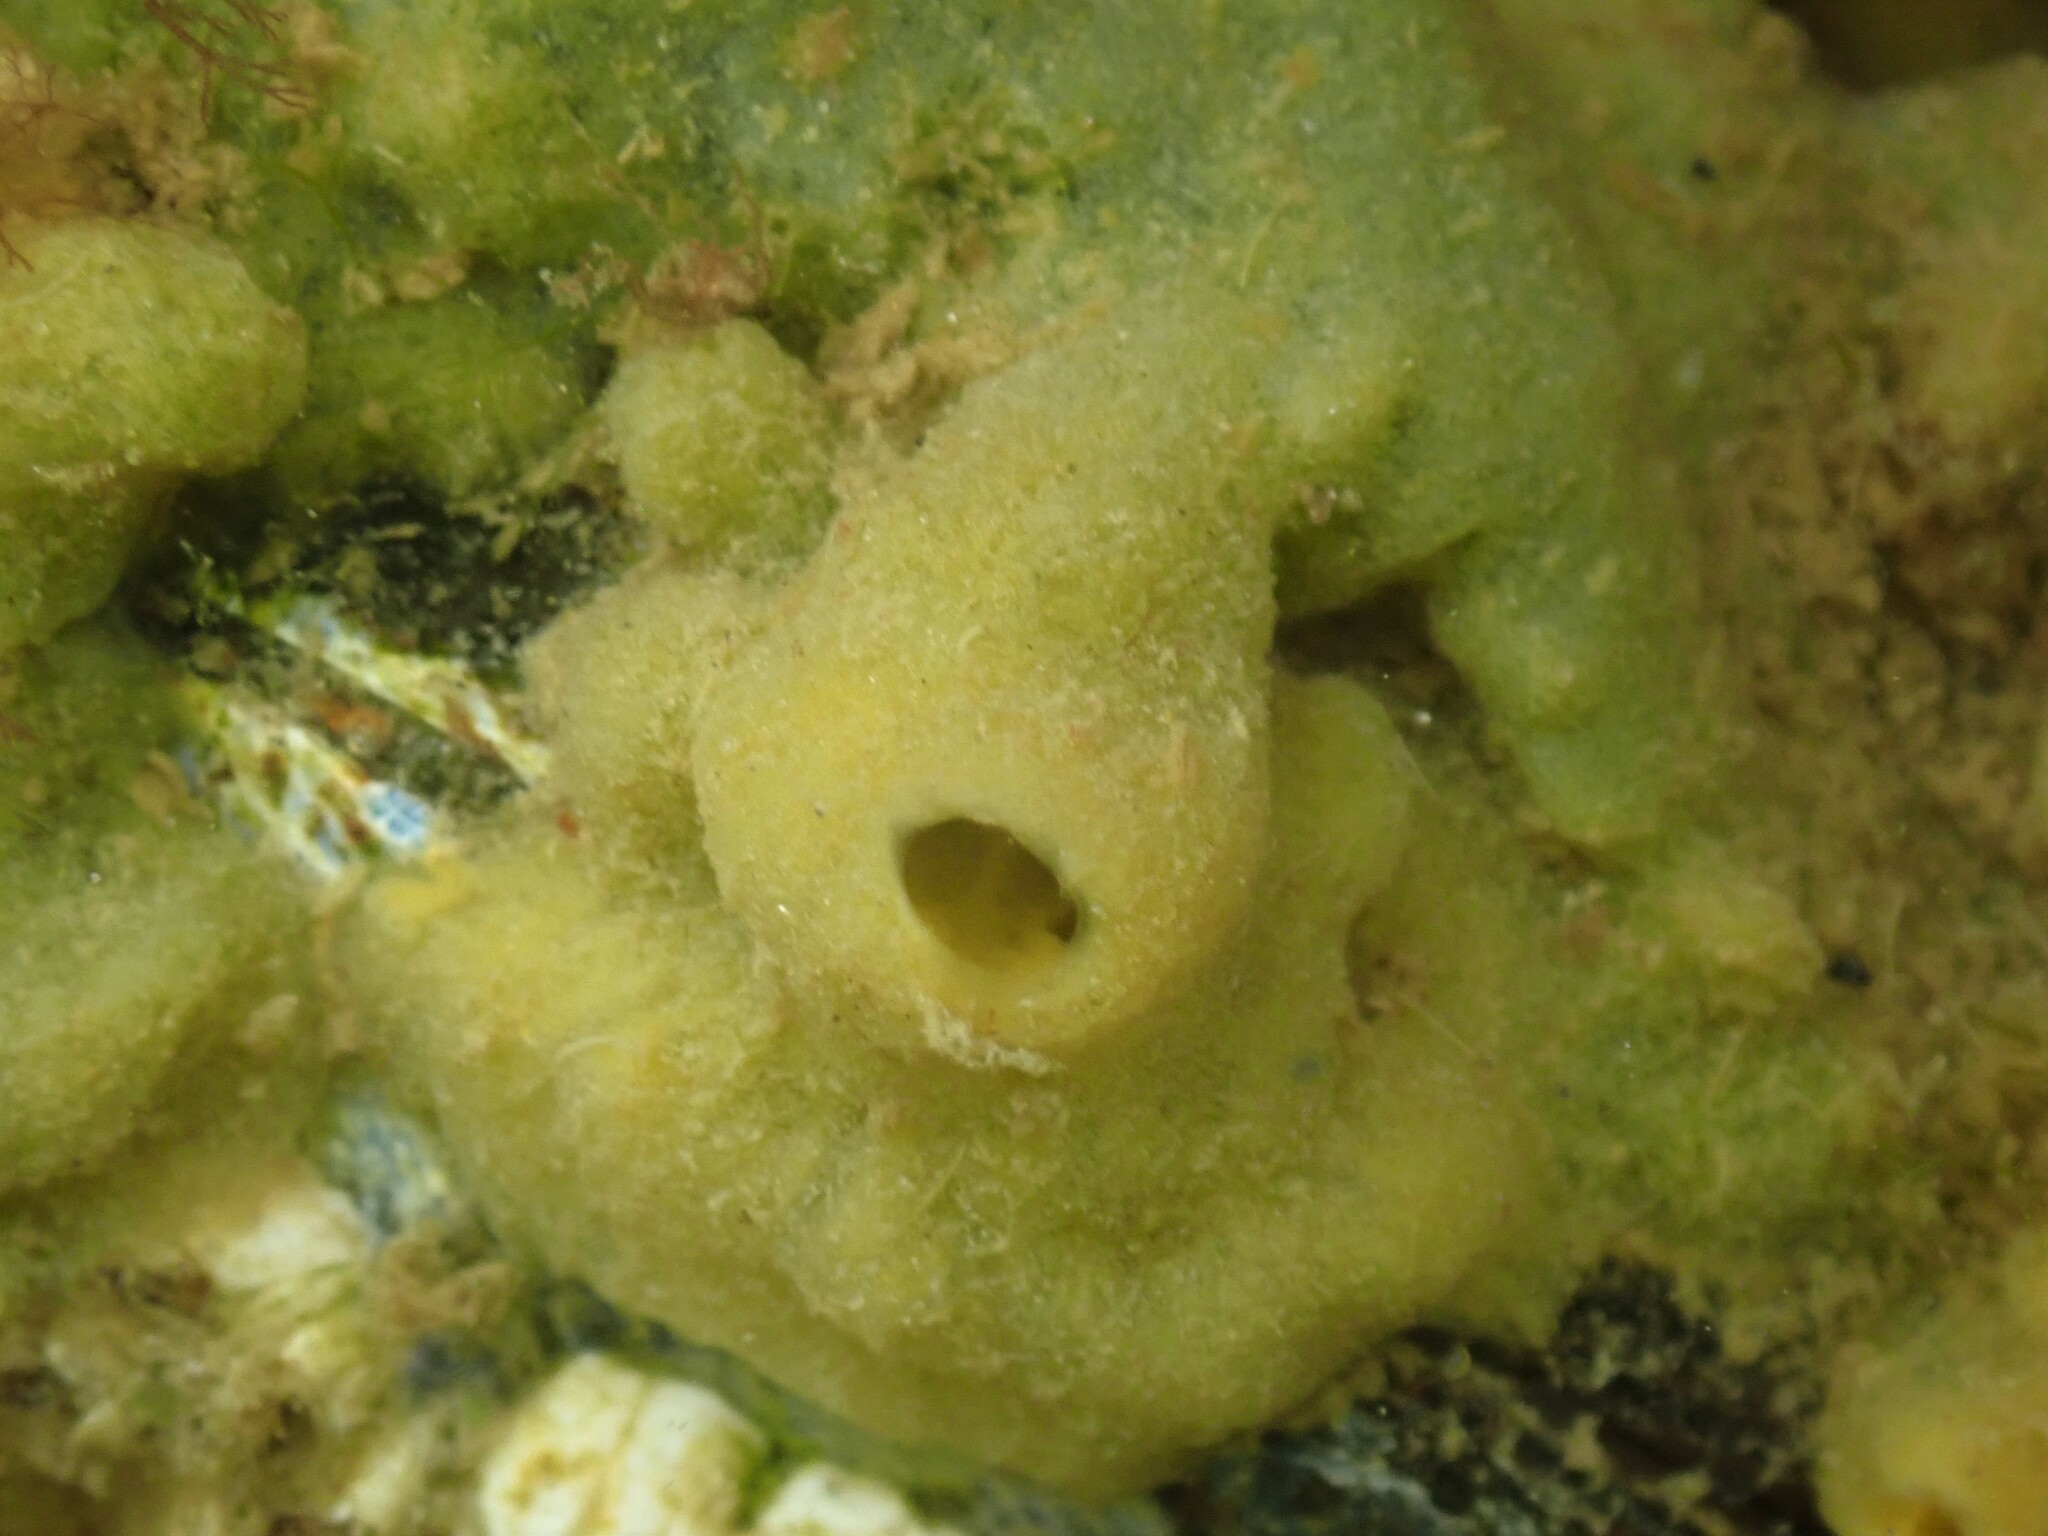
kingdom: Animalia
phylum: Porifera
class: Demospongiae
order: Suberitida
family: Halichondriidae
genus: Halichondria
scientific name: Halichondria panicea
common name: Breadcrumb sponge
